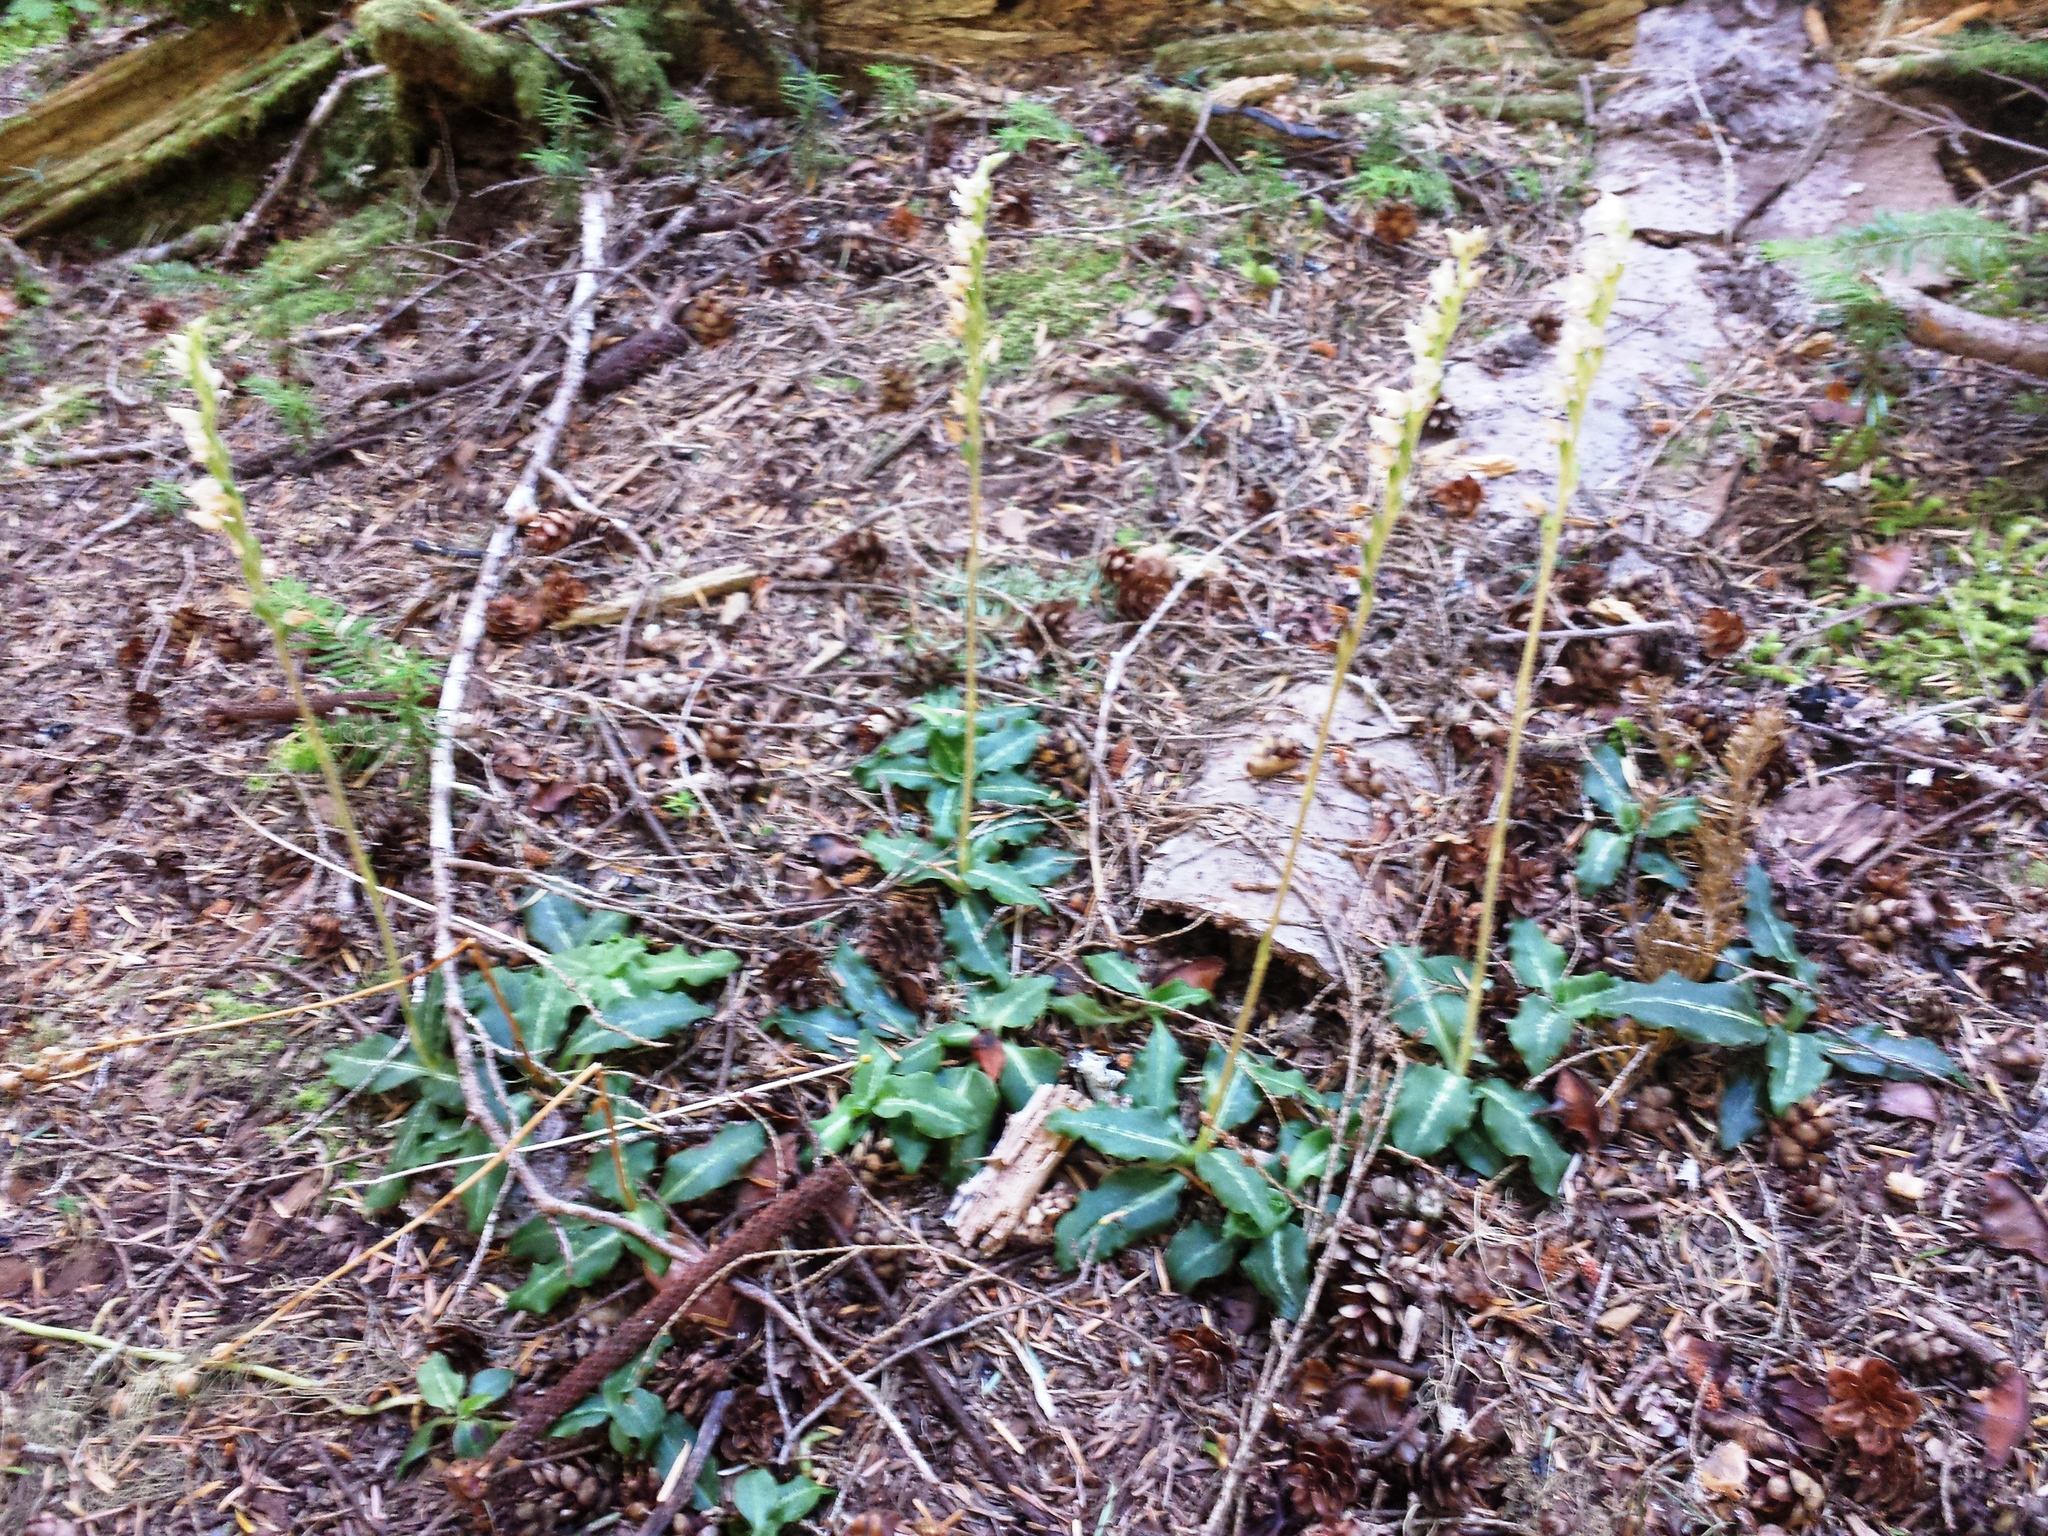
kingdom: Plantae
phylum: Tracheophyta
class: Liliopsida
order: Asparagales
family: Orchidaceae
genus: Goodyera
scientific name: Goodyera oblongifolia
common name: Giant rattlesnake-plantain
